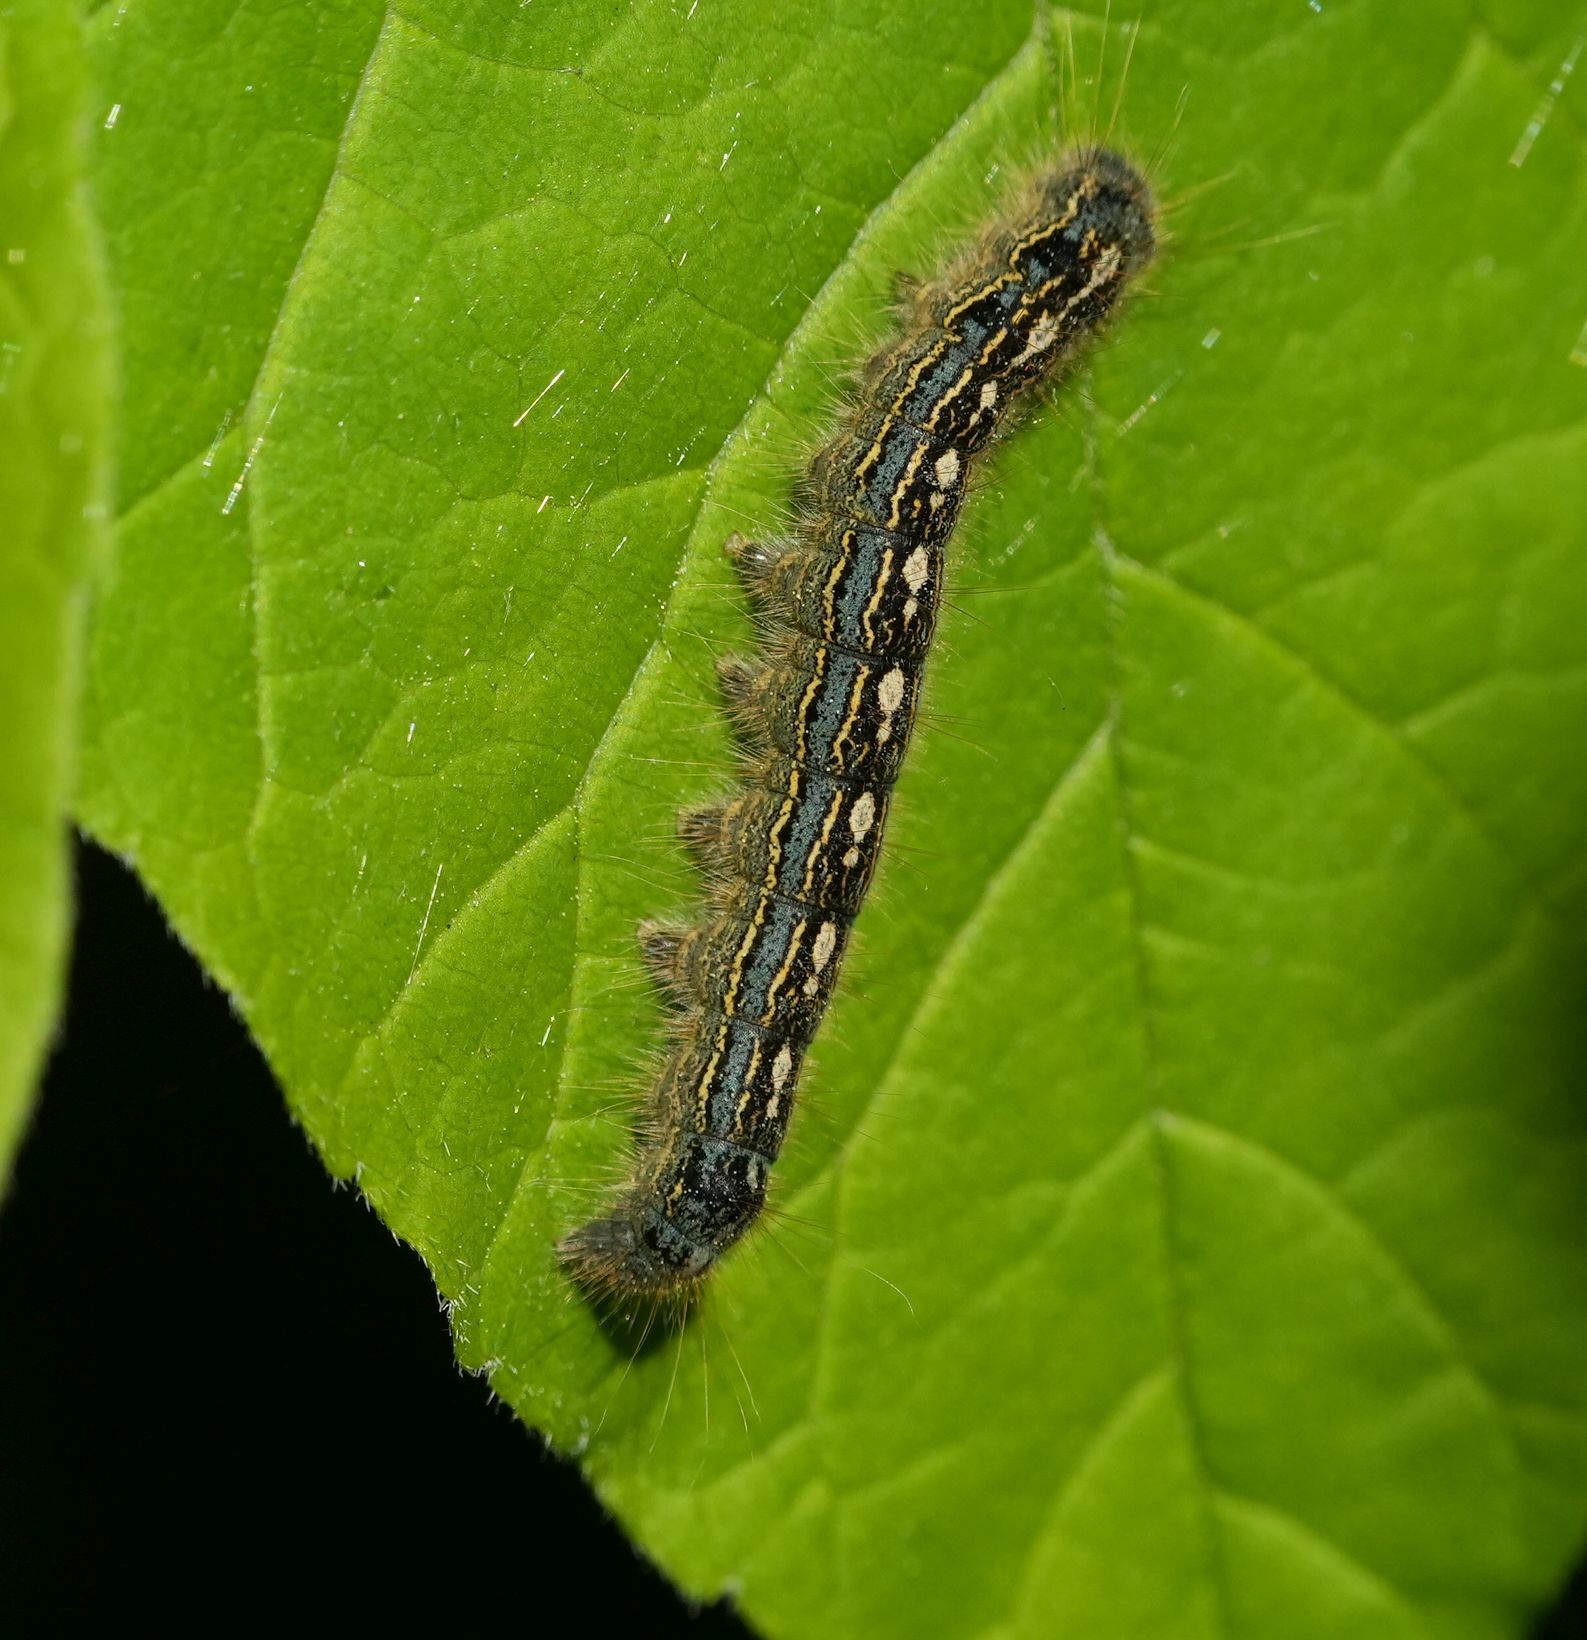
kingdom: Animalia
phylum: Arthropoda
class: Insecta
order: Lepidoptera
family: Lasiocampidae
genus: Malacosoma
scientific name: Malacosoma disstria
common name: Forest tent caterpillar
